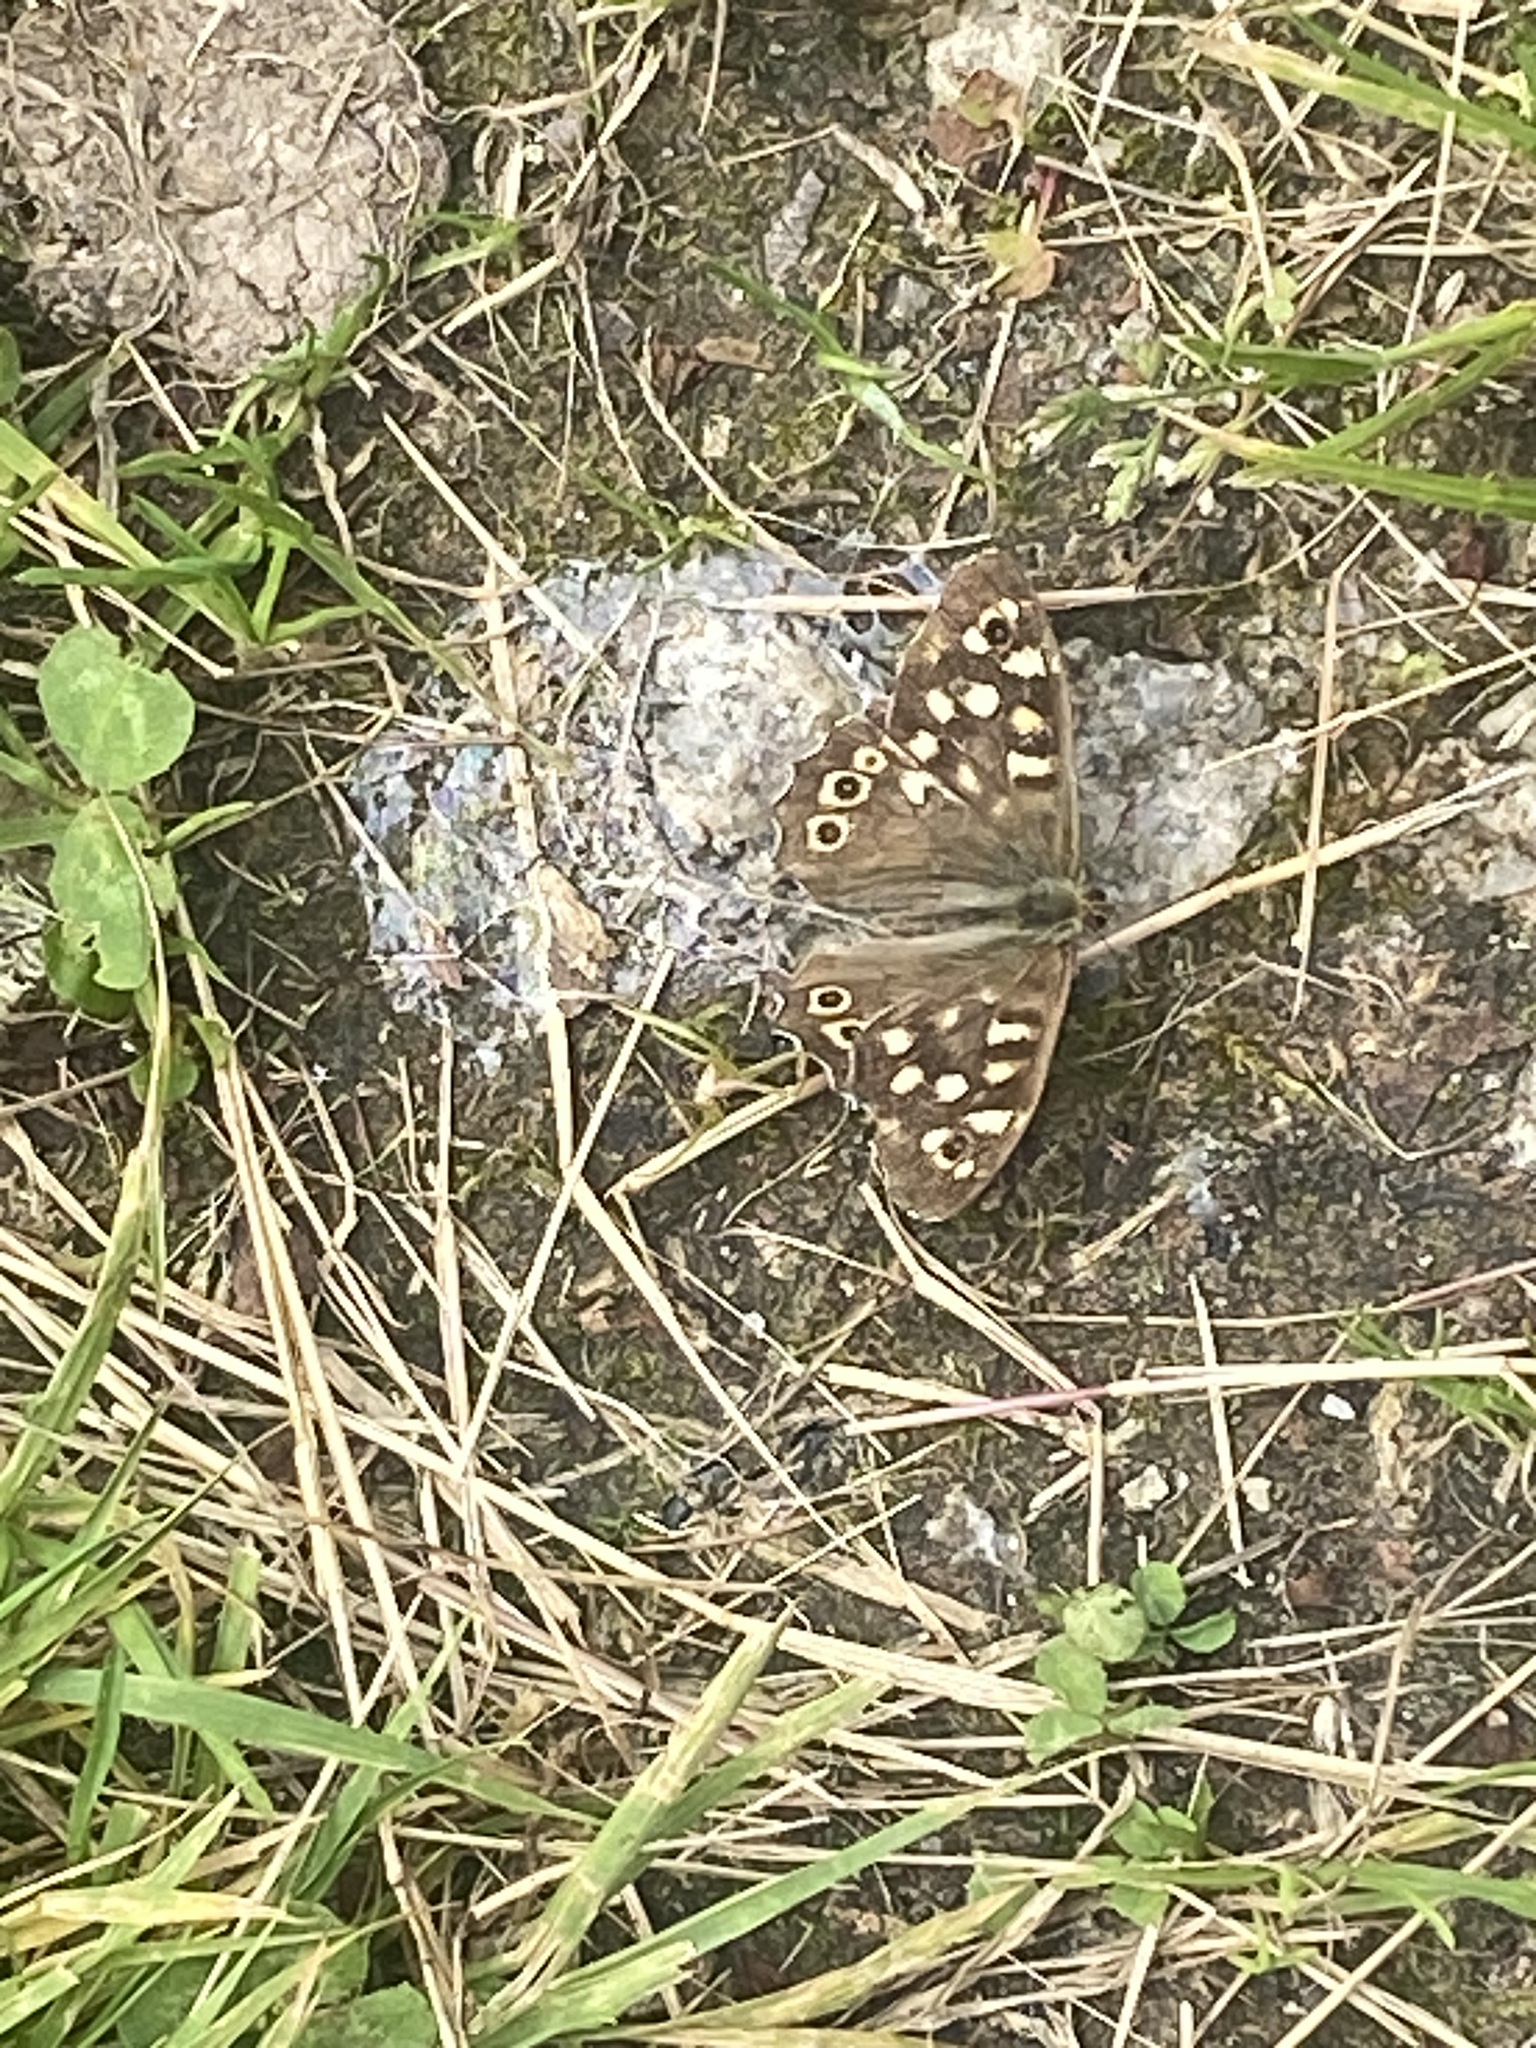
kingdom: Animalia
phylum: Arthropoda
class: Insecta
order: Lepidoptera
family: Nymphalidae
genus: Pararge
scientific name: Pararge aegeria
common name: Speckled wood
